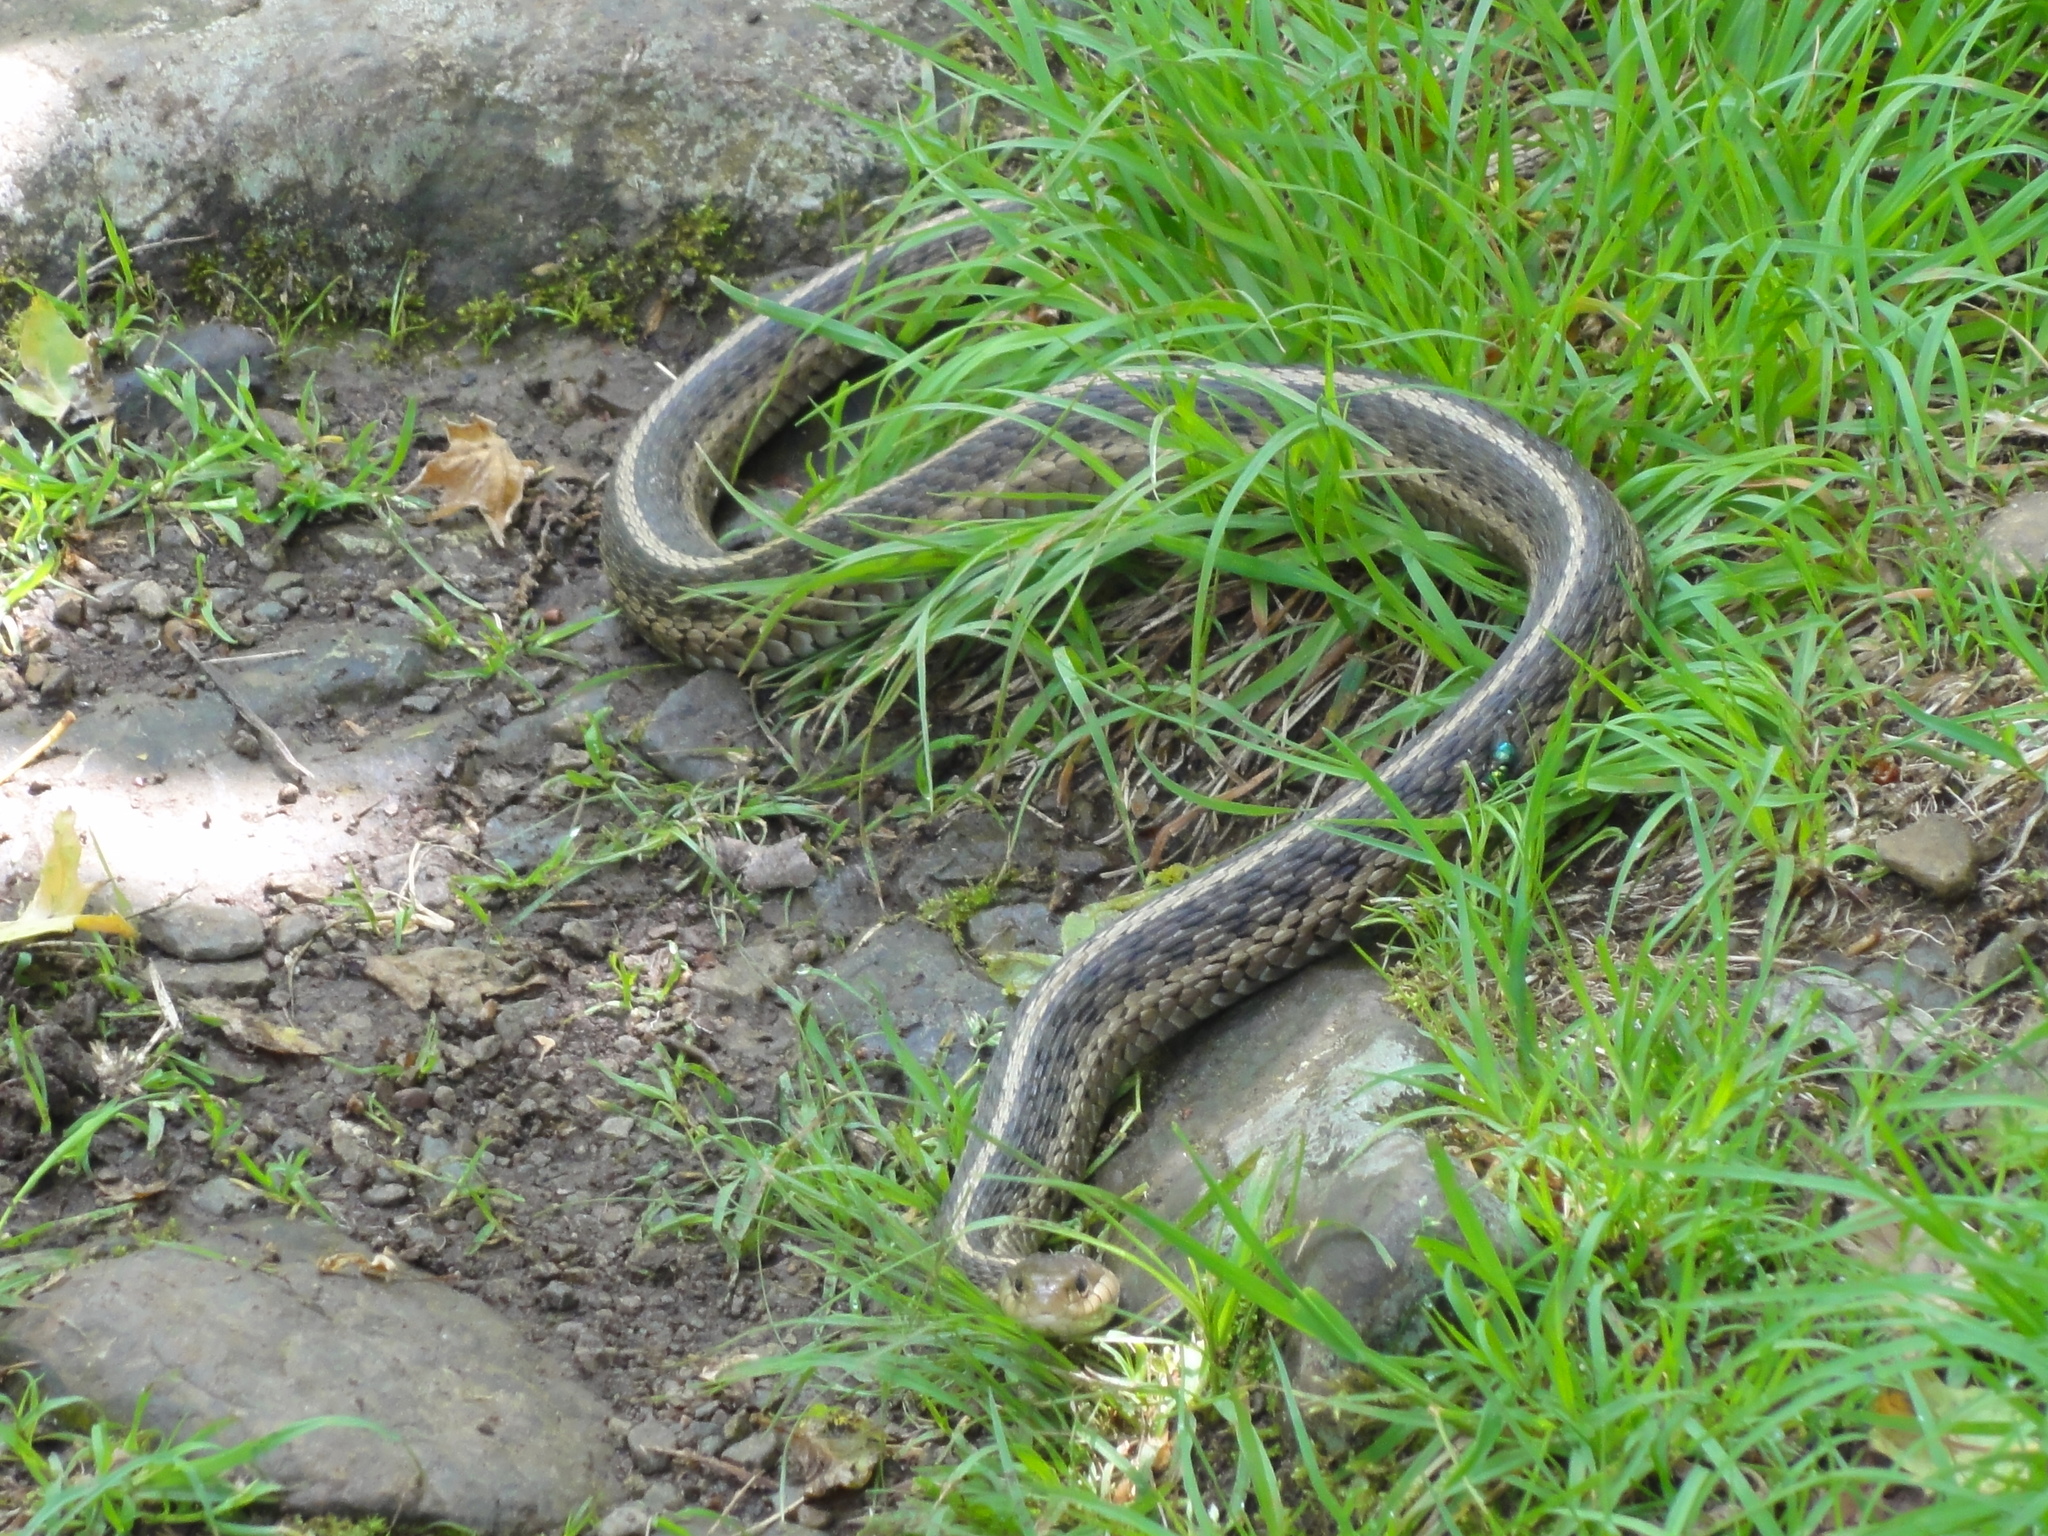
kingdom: Animalia
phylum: Chordata
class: Squamata
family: Colubridae
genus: Thamnophis
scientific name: Thamnophis sirtalis
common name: Common garter snake
